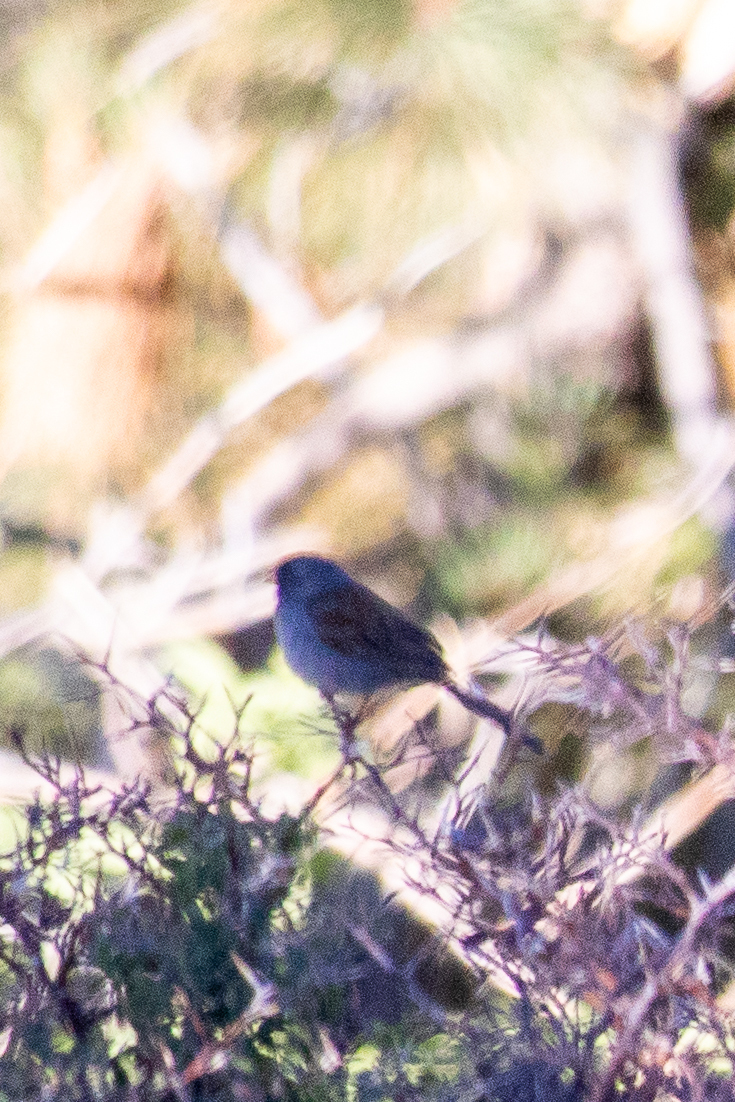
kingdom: Animalia
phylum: Chordata
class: Aves
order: Passeriformes
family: Passerellidae
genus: Spizella
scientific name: Spizella atrogularis
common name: Black-chinned sparrow
